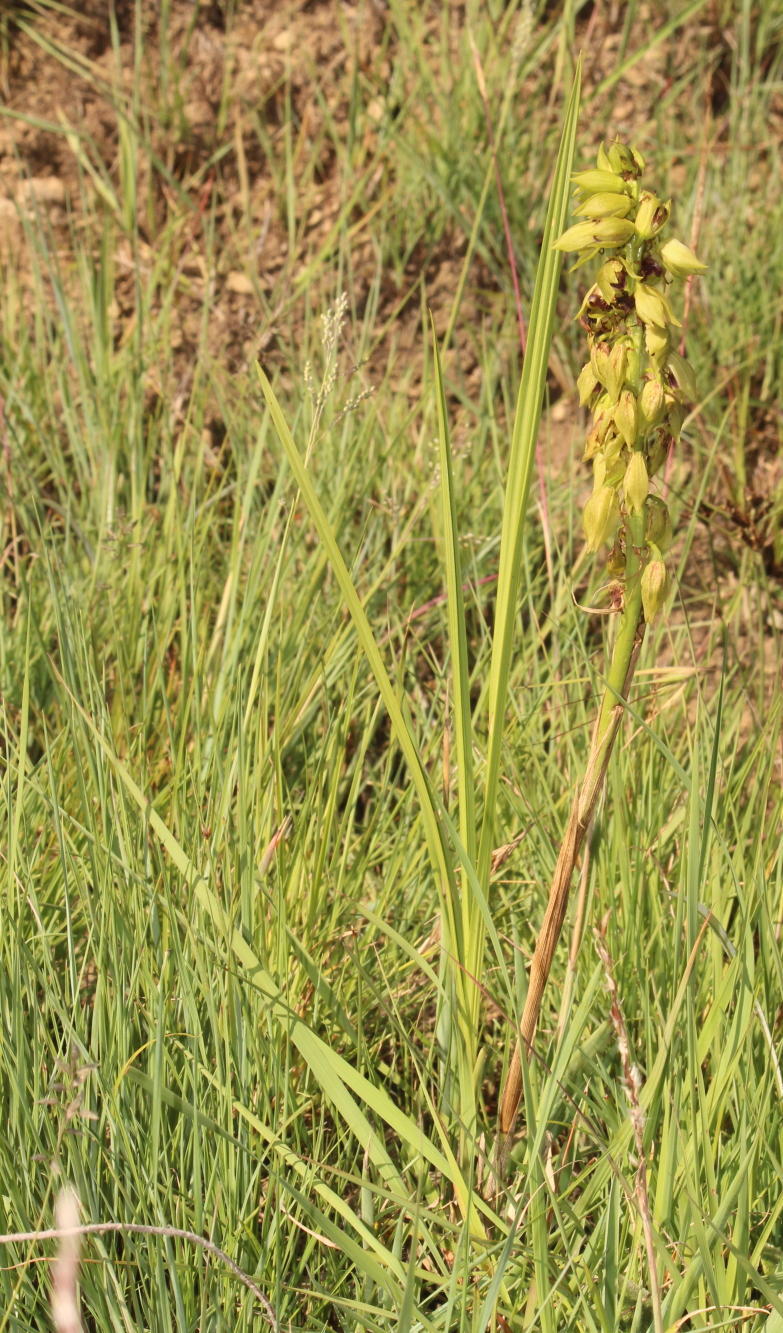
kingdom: Plantae
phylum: Tracheophyta
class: Liliopsida
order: Asparagales
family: Orchidaceae
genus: Eulophia
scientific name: Eulophia foliosa
